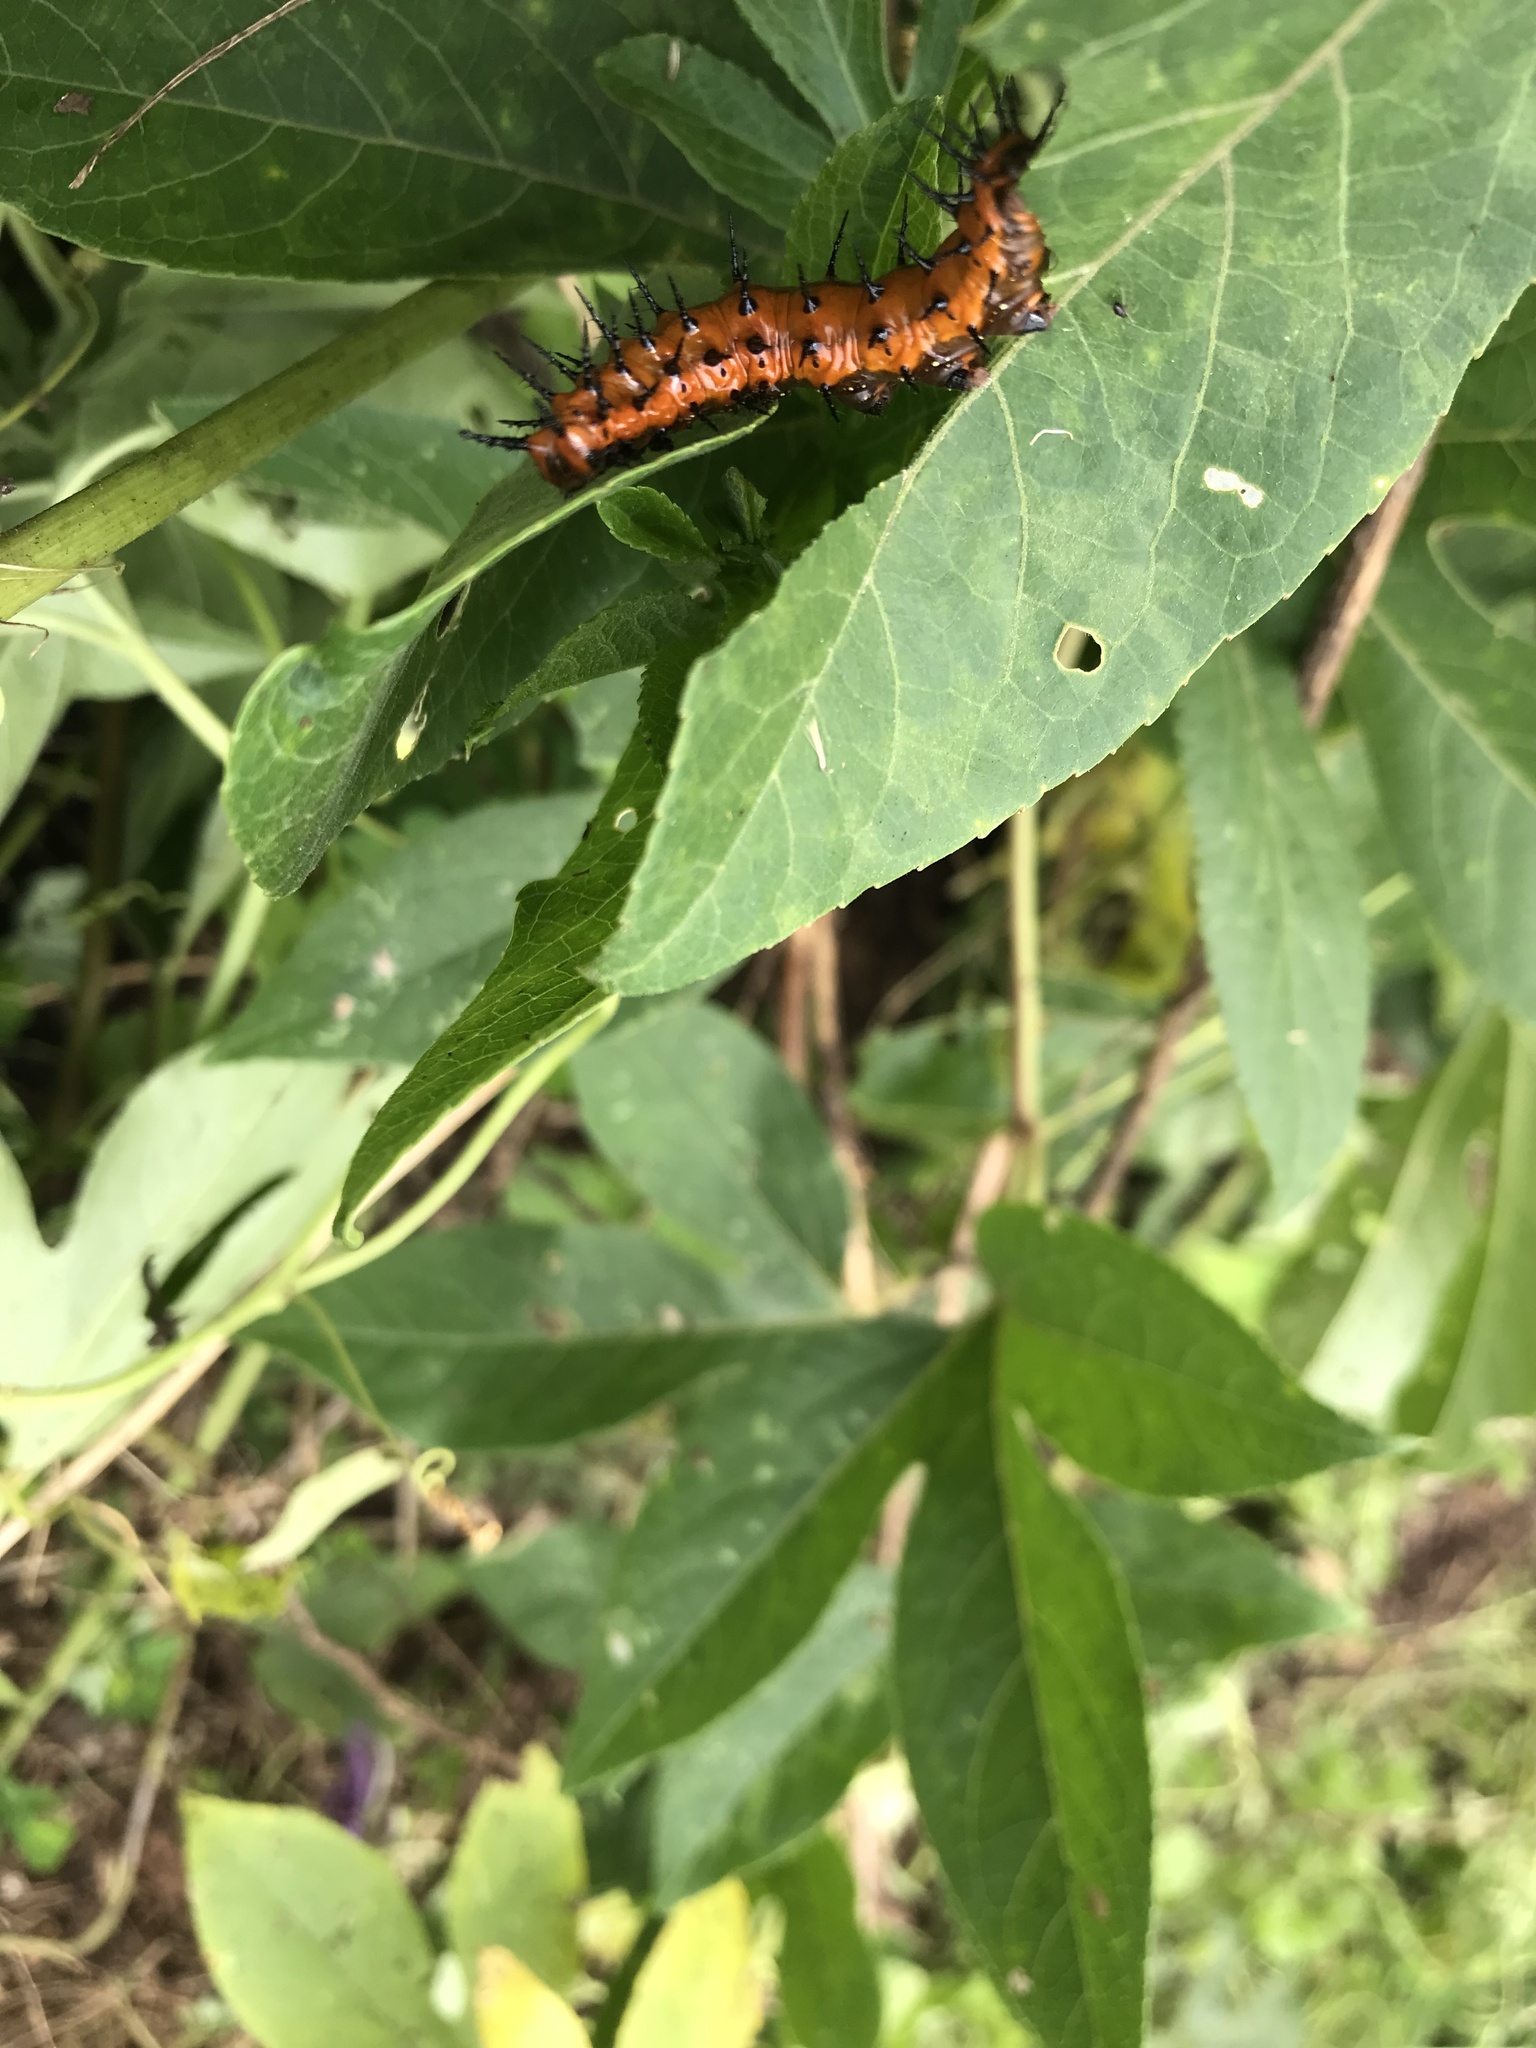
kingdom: Animalia
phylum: Arthropoda
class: Insecta
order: Lepidoptera
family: Nymphalidae
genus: Dione
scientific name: Dione vanillae
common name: Gulf fritillary
